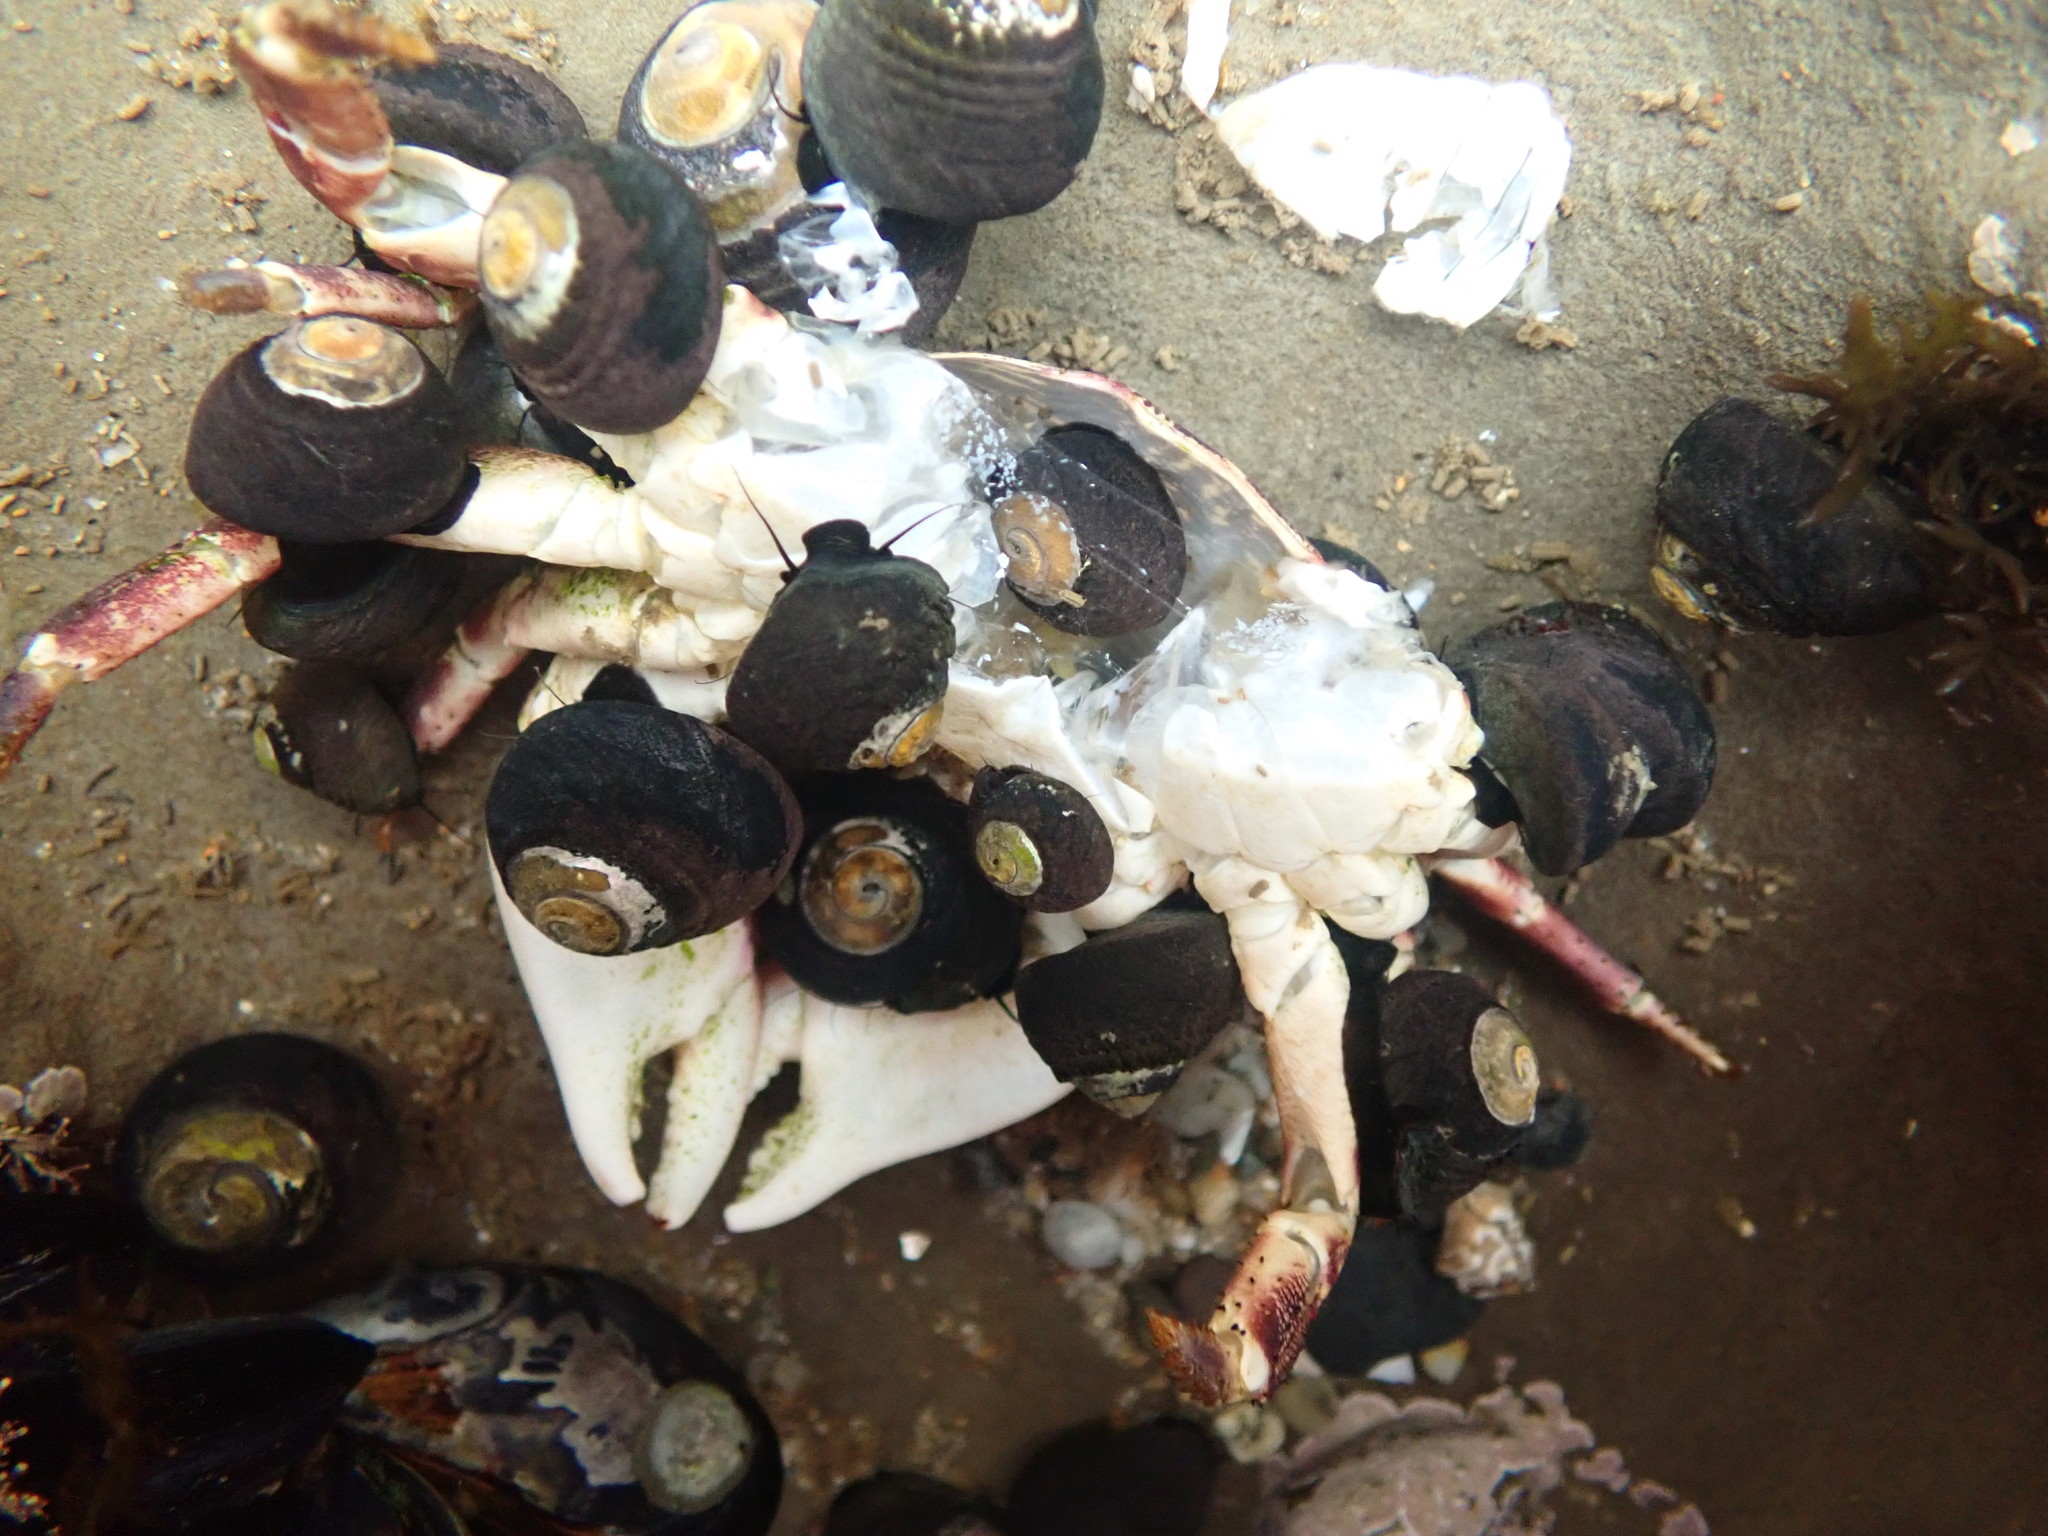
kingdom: Animalia
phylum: Mollusca
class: Gastropoda
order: Trochida
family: Tegulidae
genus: Tegula
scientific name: Tegula funebralis
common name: Black tegula
